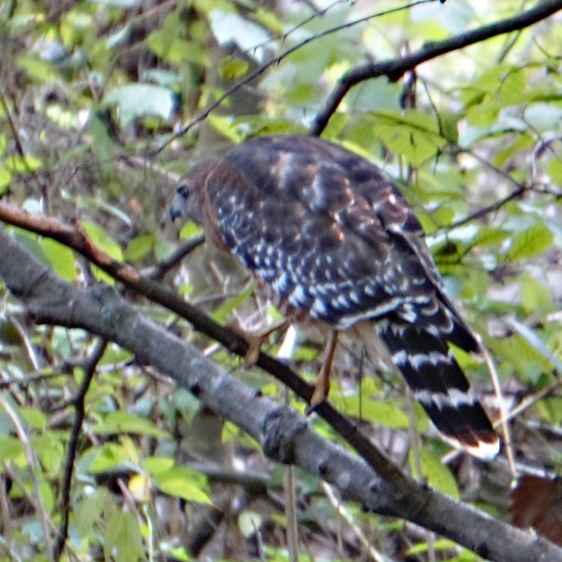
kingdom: Animalia
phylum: Chordata
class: Aves
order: Accipitriformes
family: Accipitridae
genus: Buteo
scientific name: Buteo lineatus
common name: Red-shouldered hawk
